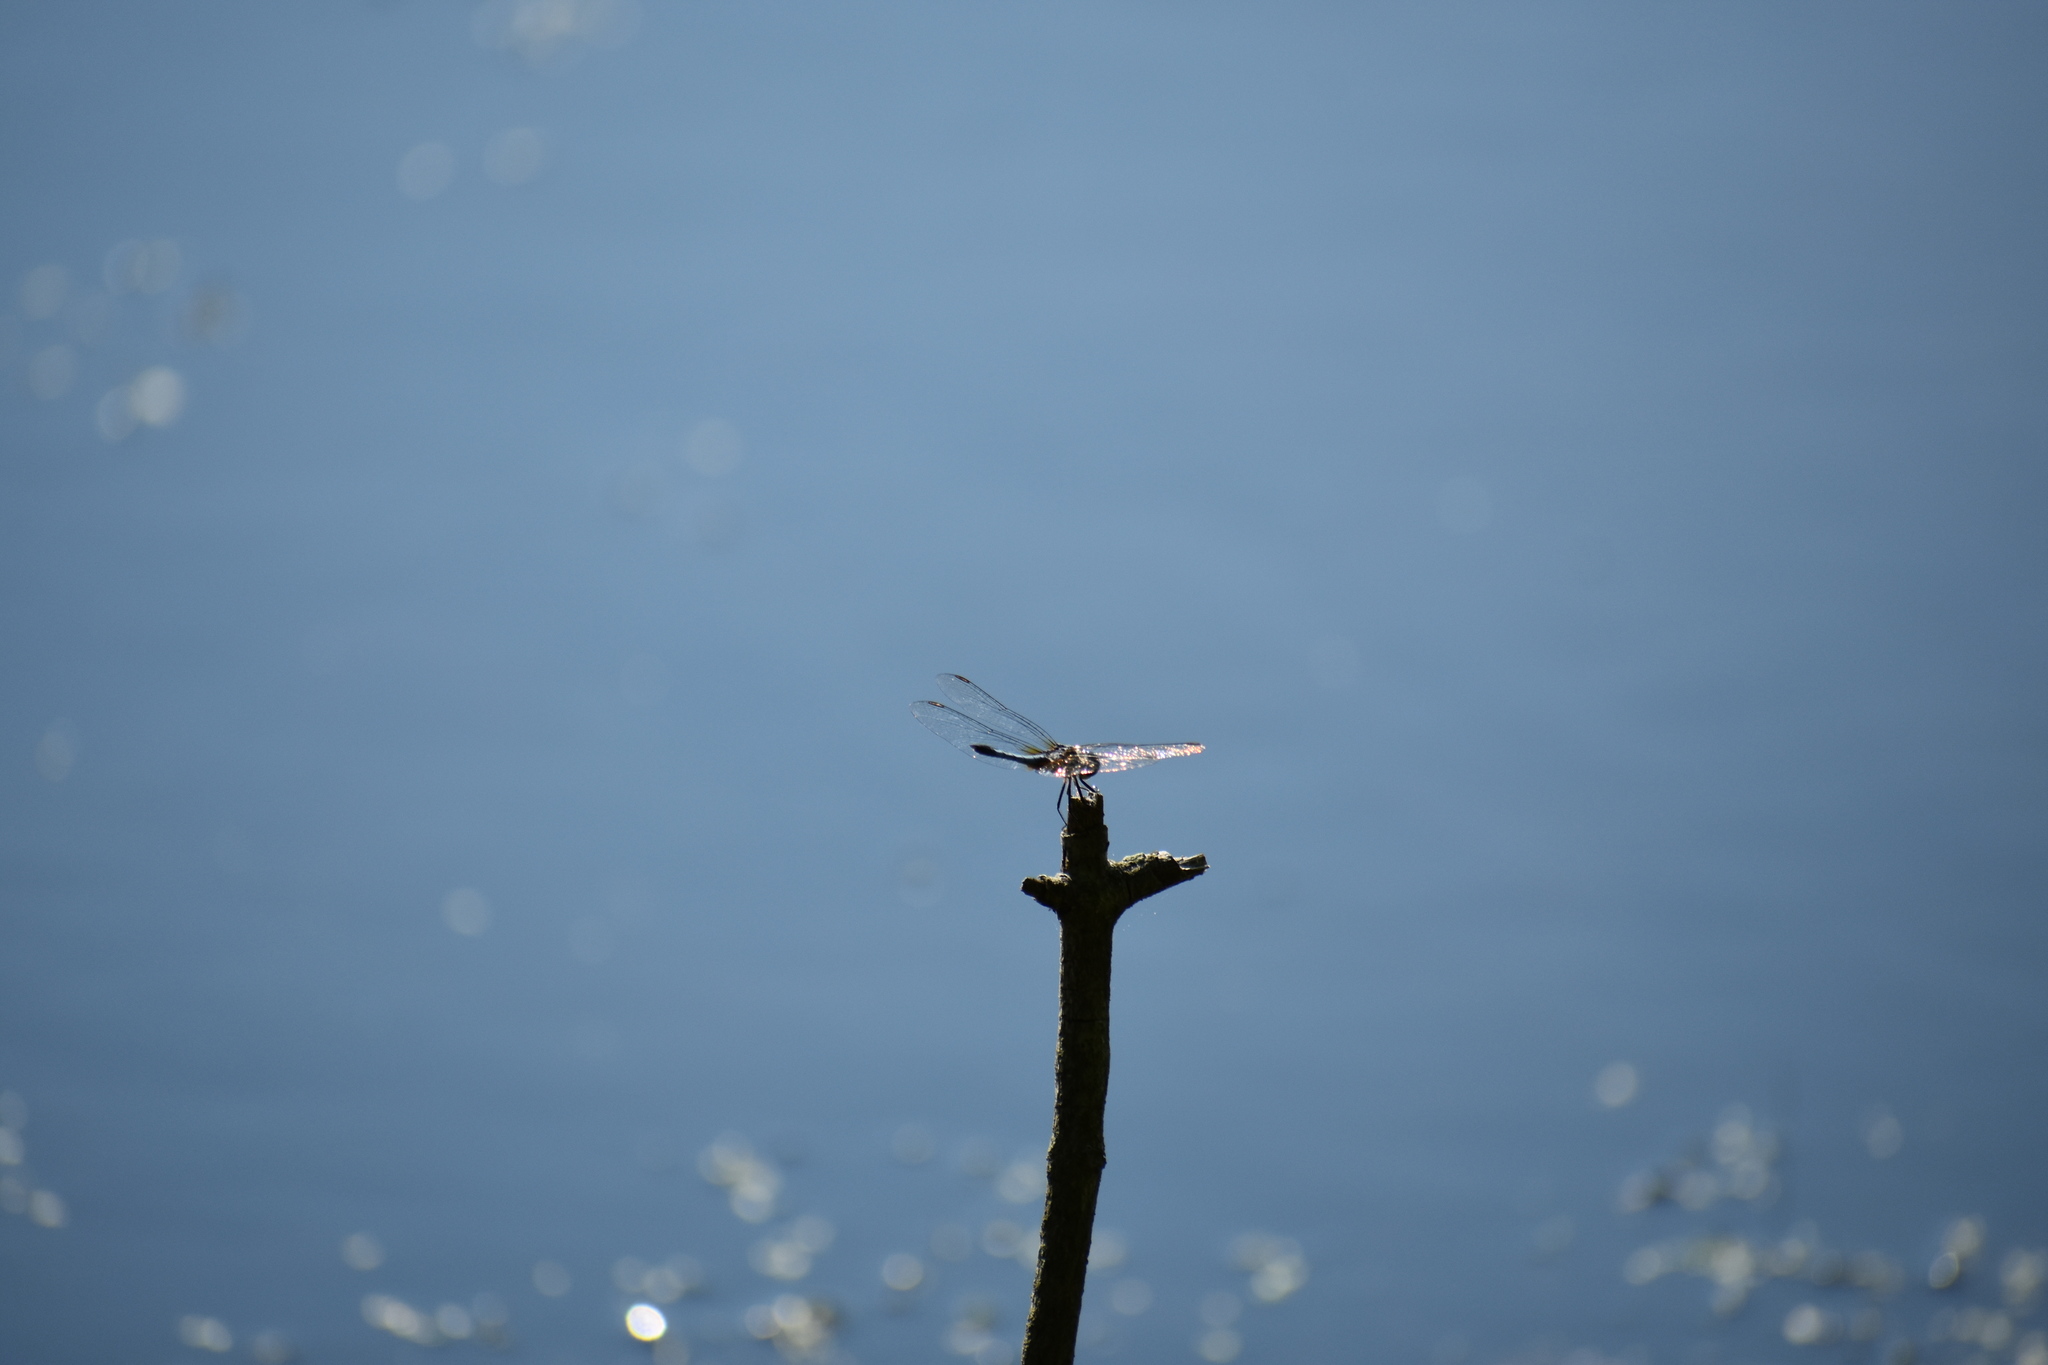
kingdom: Animalia
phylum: Arthropoda
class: Insecta
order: Odonata
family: Libellulidae
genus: Pachydiplax
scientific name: Pachydiplax longipennis
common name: Blue dasher
